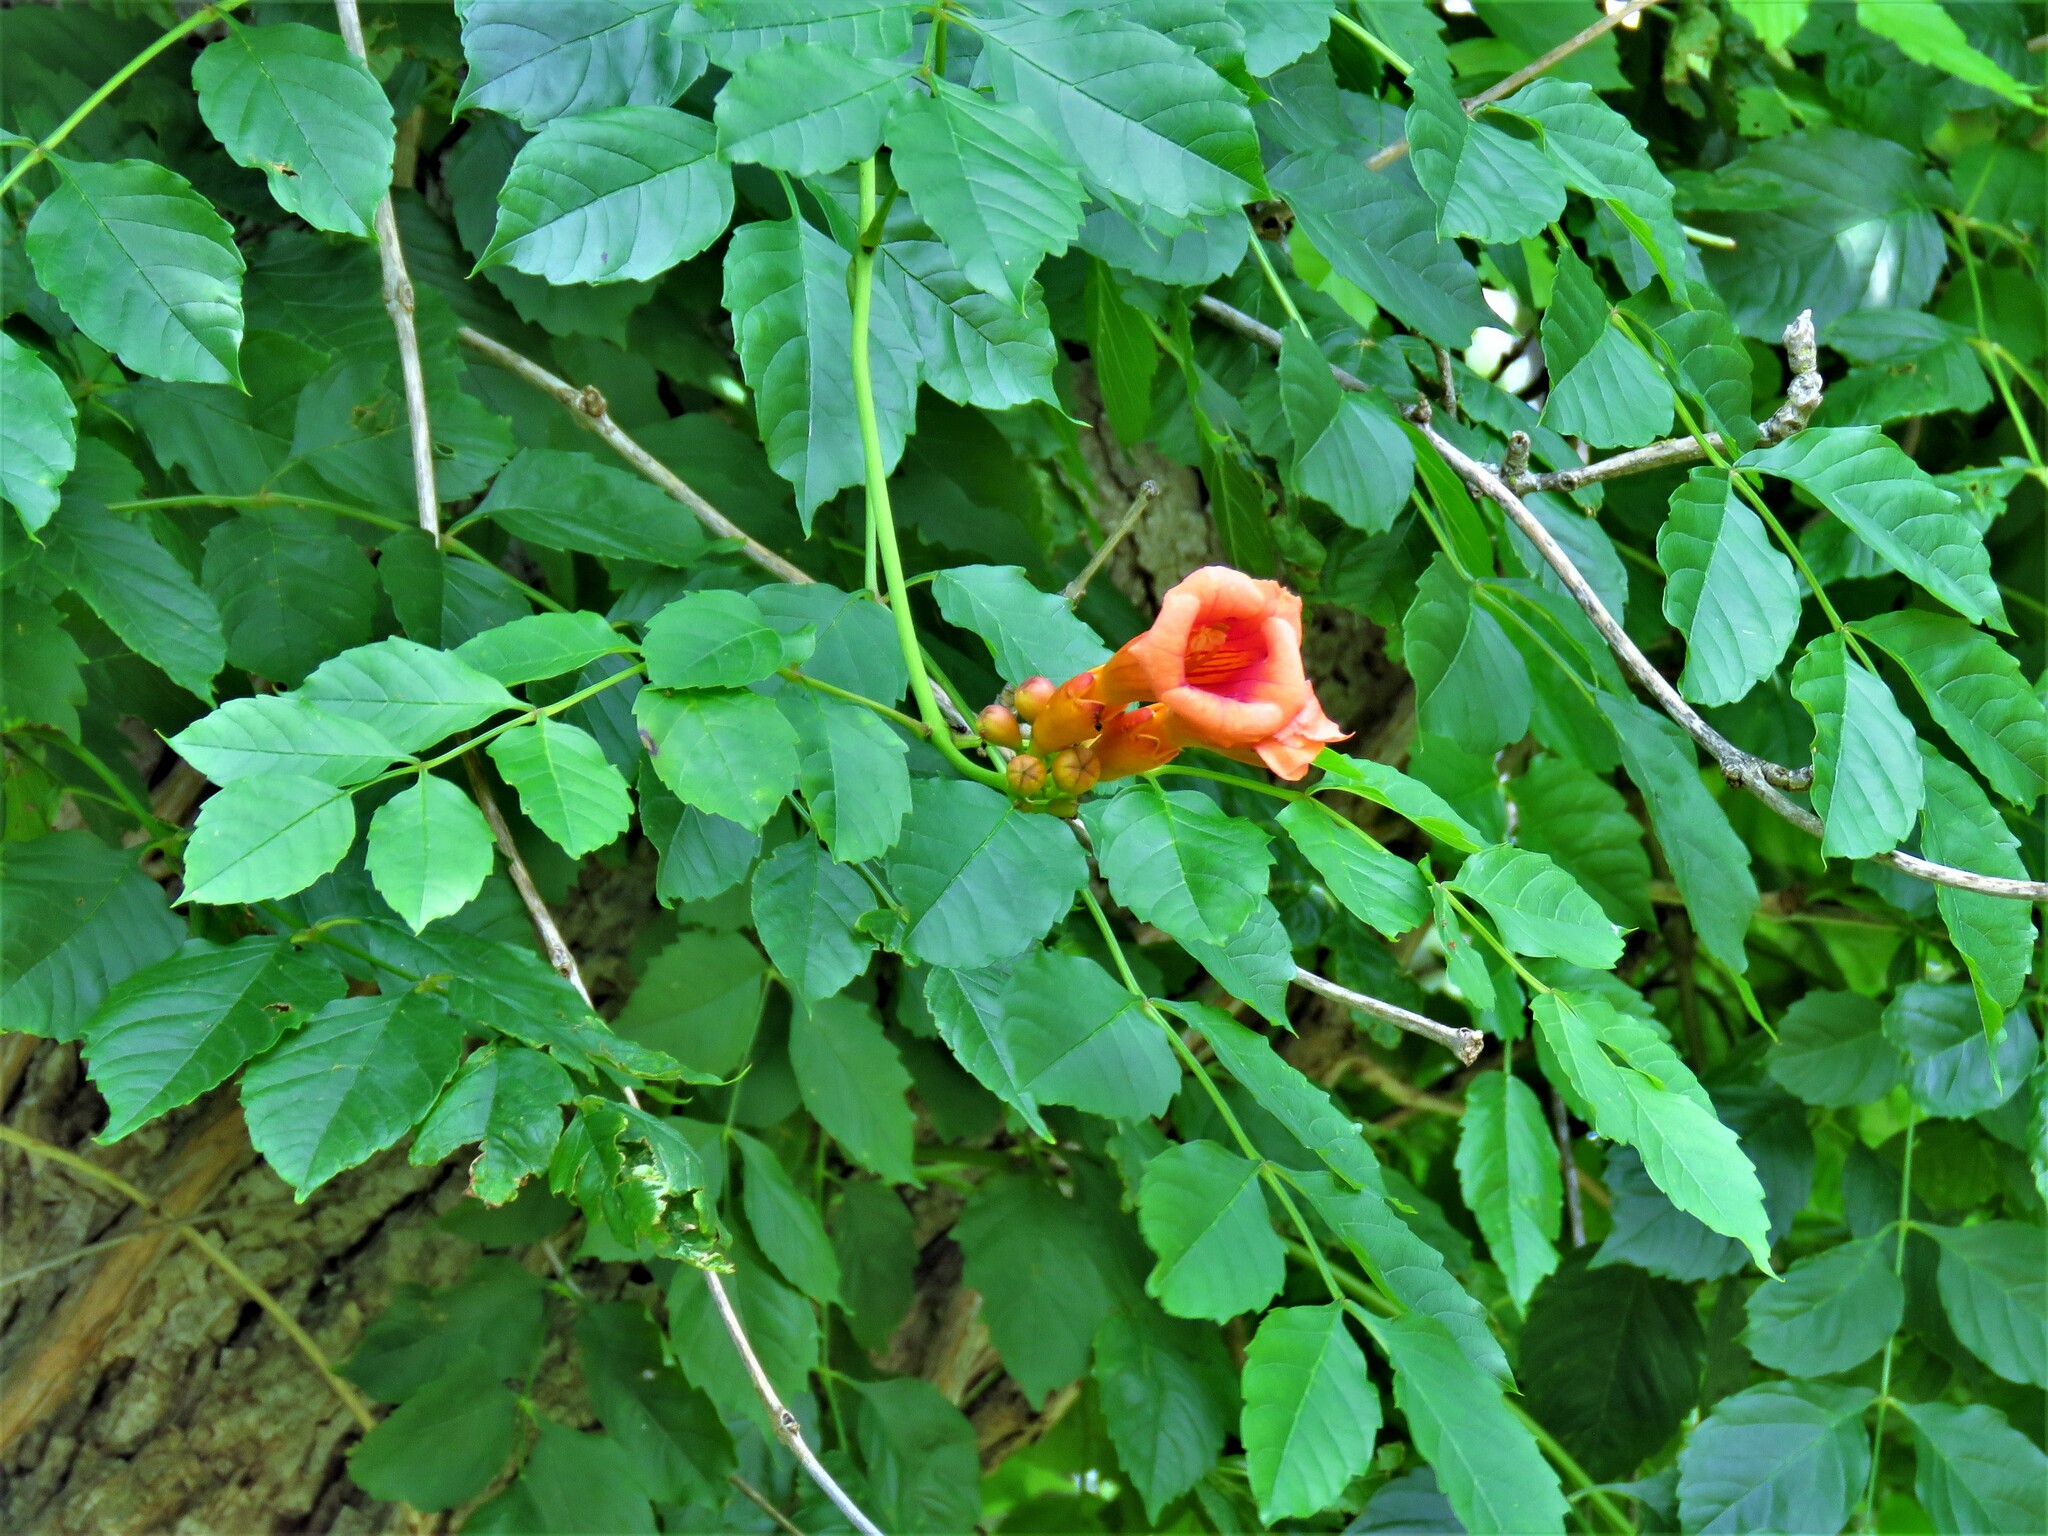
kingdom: Plantae
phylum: Tracheophyta
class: Magnoliopsida
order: Lamiales
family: Bignoniaceae
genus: Campsis
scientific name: Campsis radicans
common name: Trumpet-creeper
